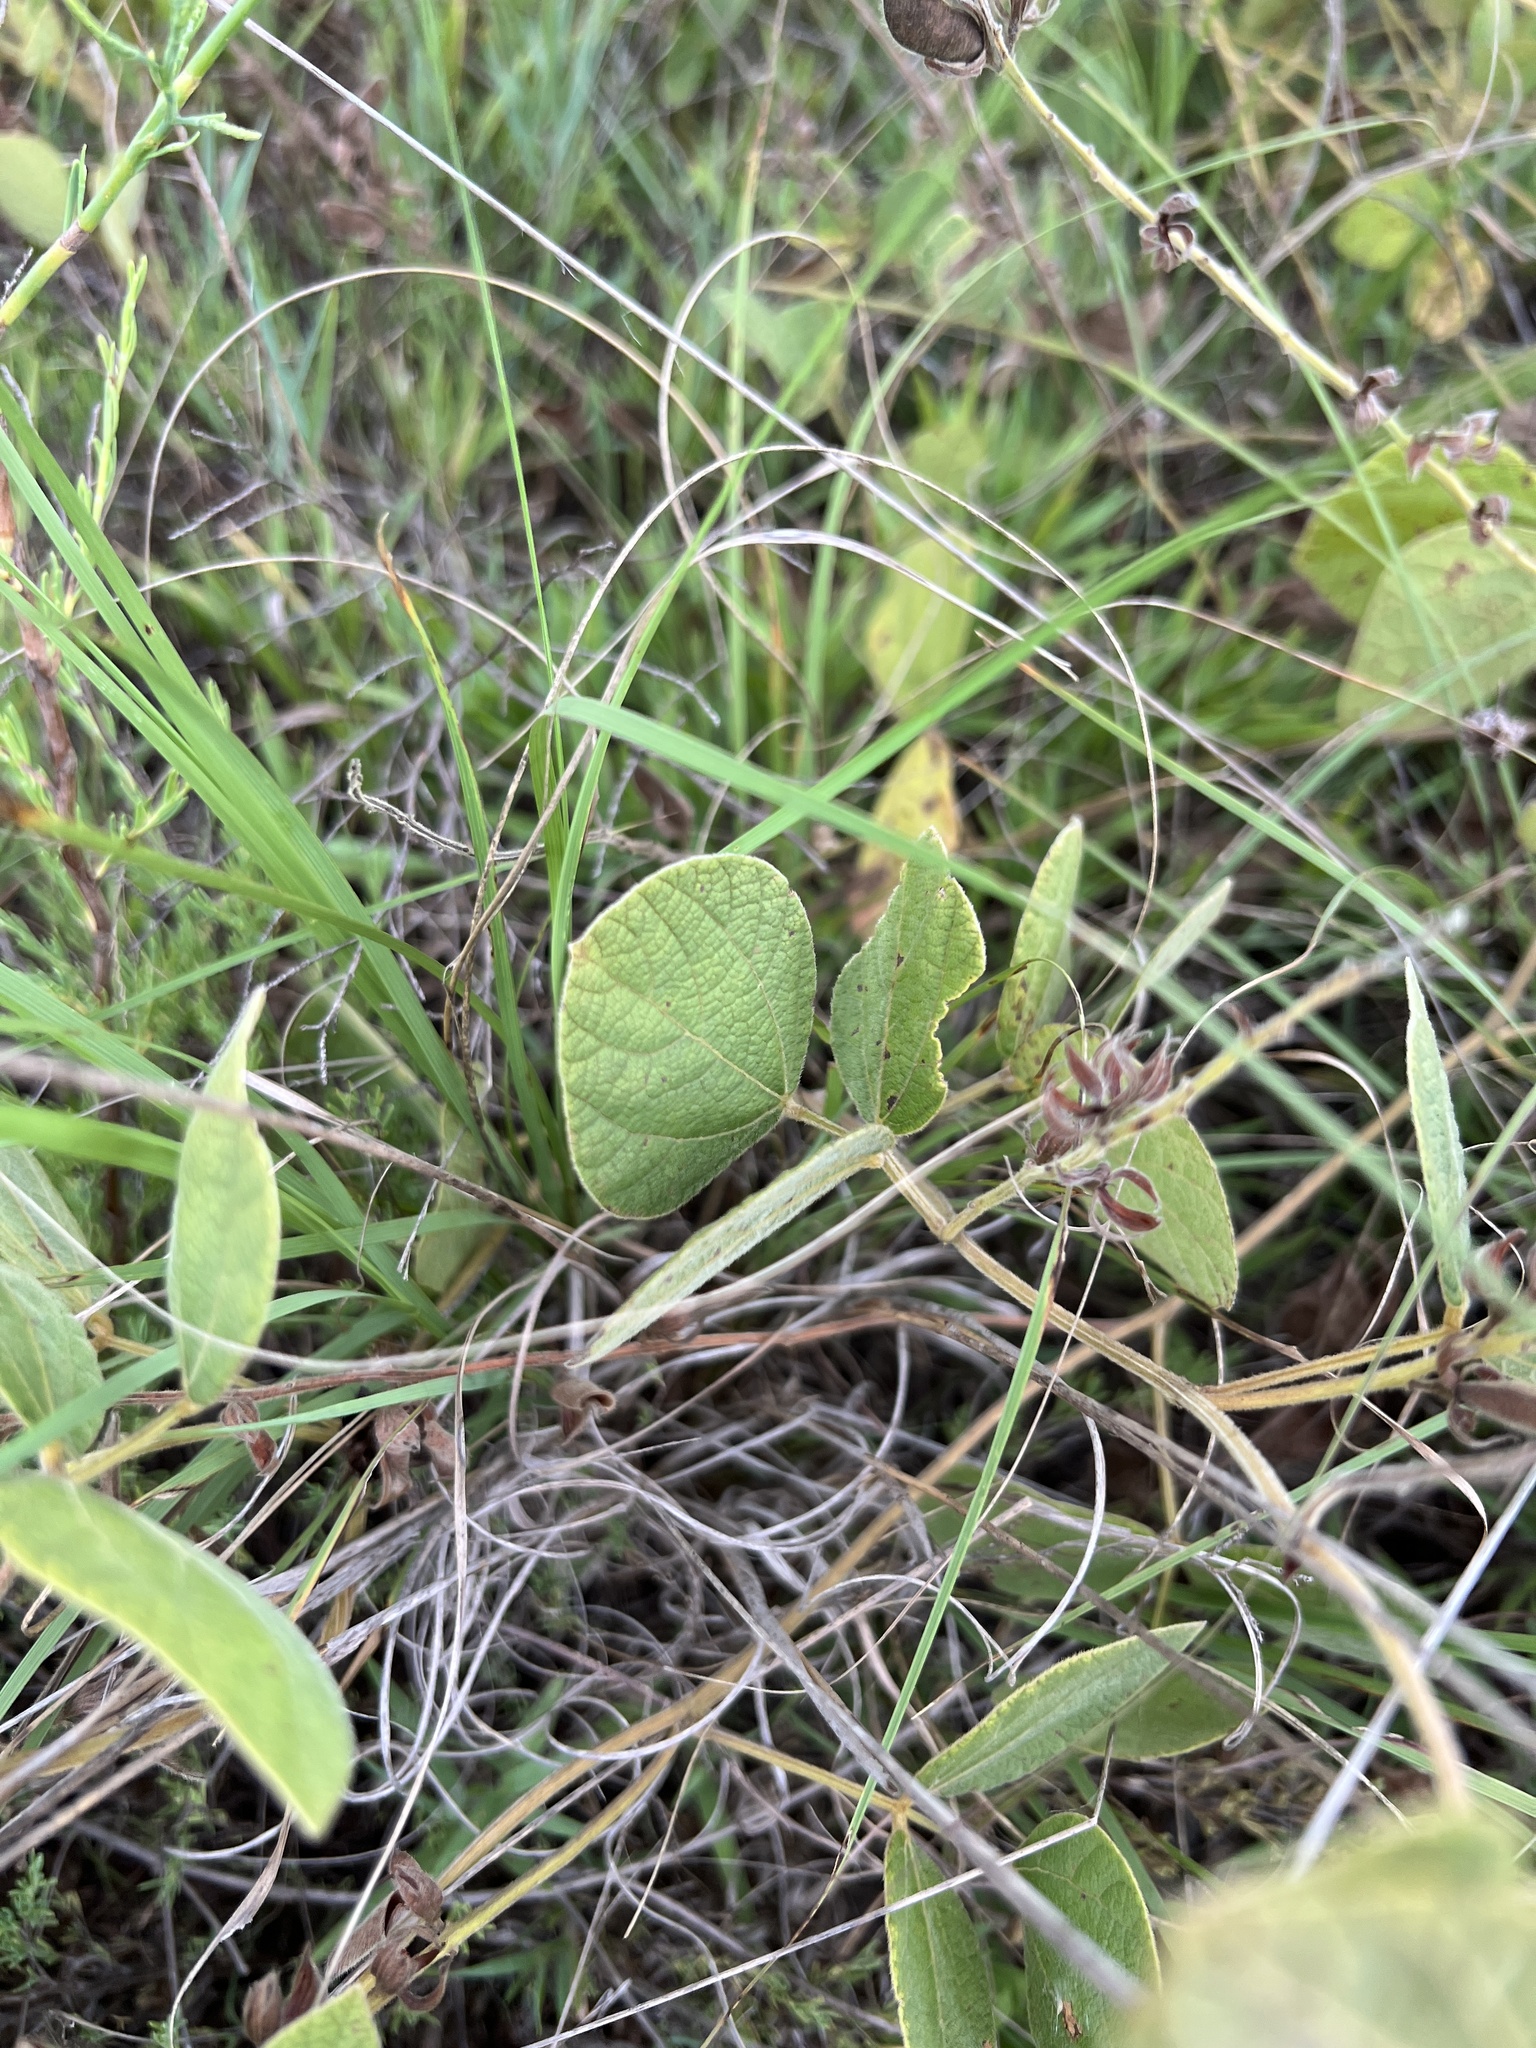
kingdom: Plantae
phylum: Tracheophyta
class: Magnoliopsida
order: Fabales
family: Fabaceae
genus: Rhynchosia
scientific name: Rhynchosia latifolia
